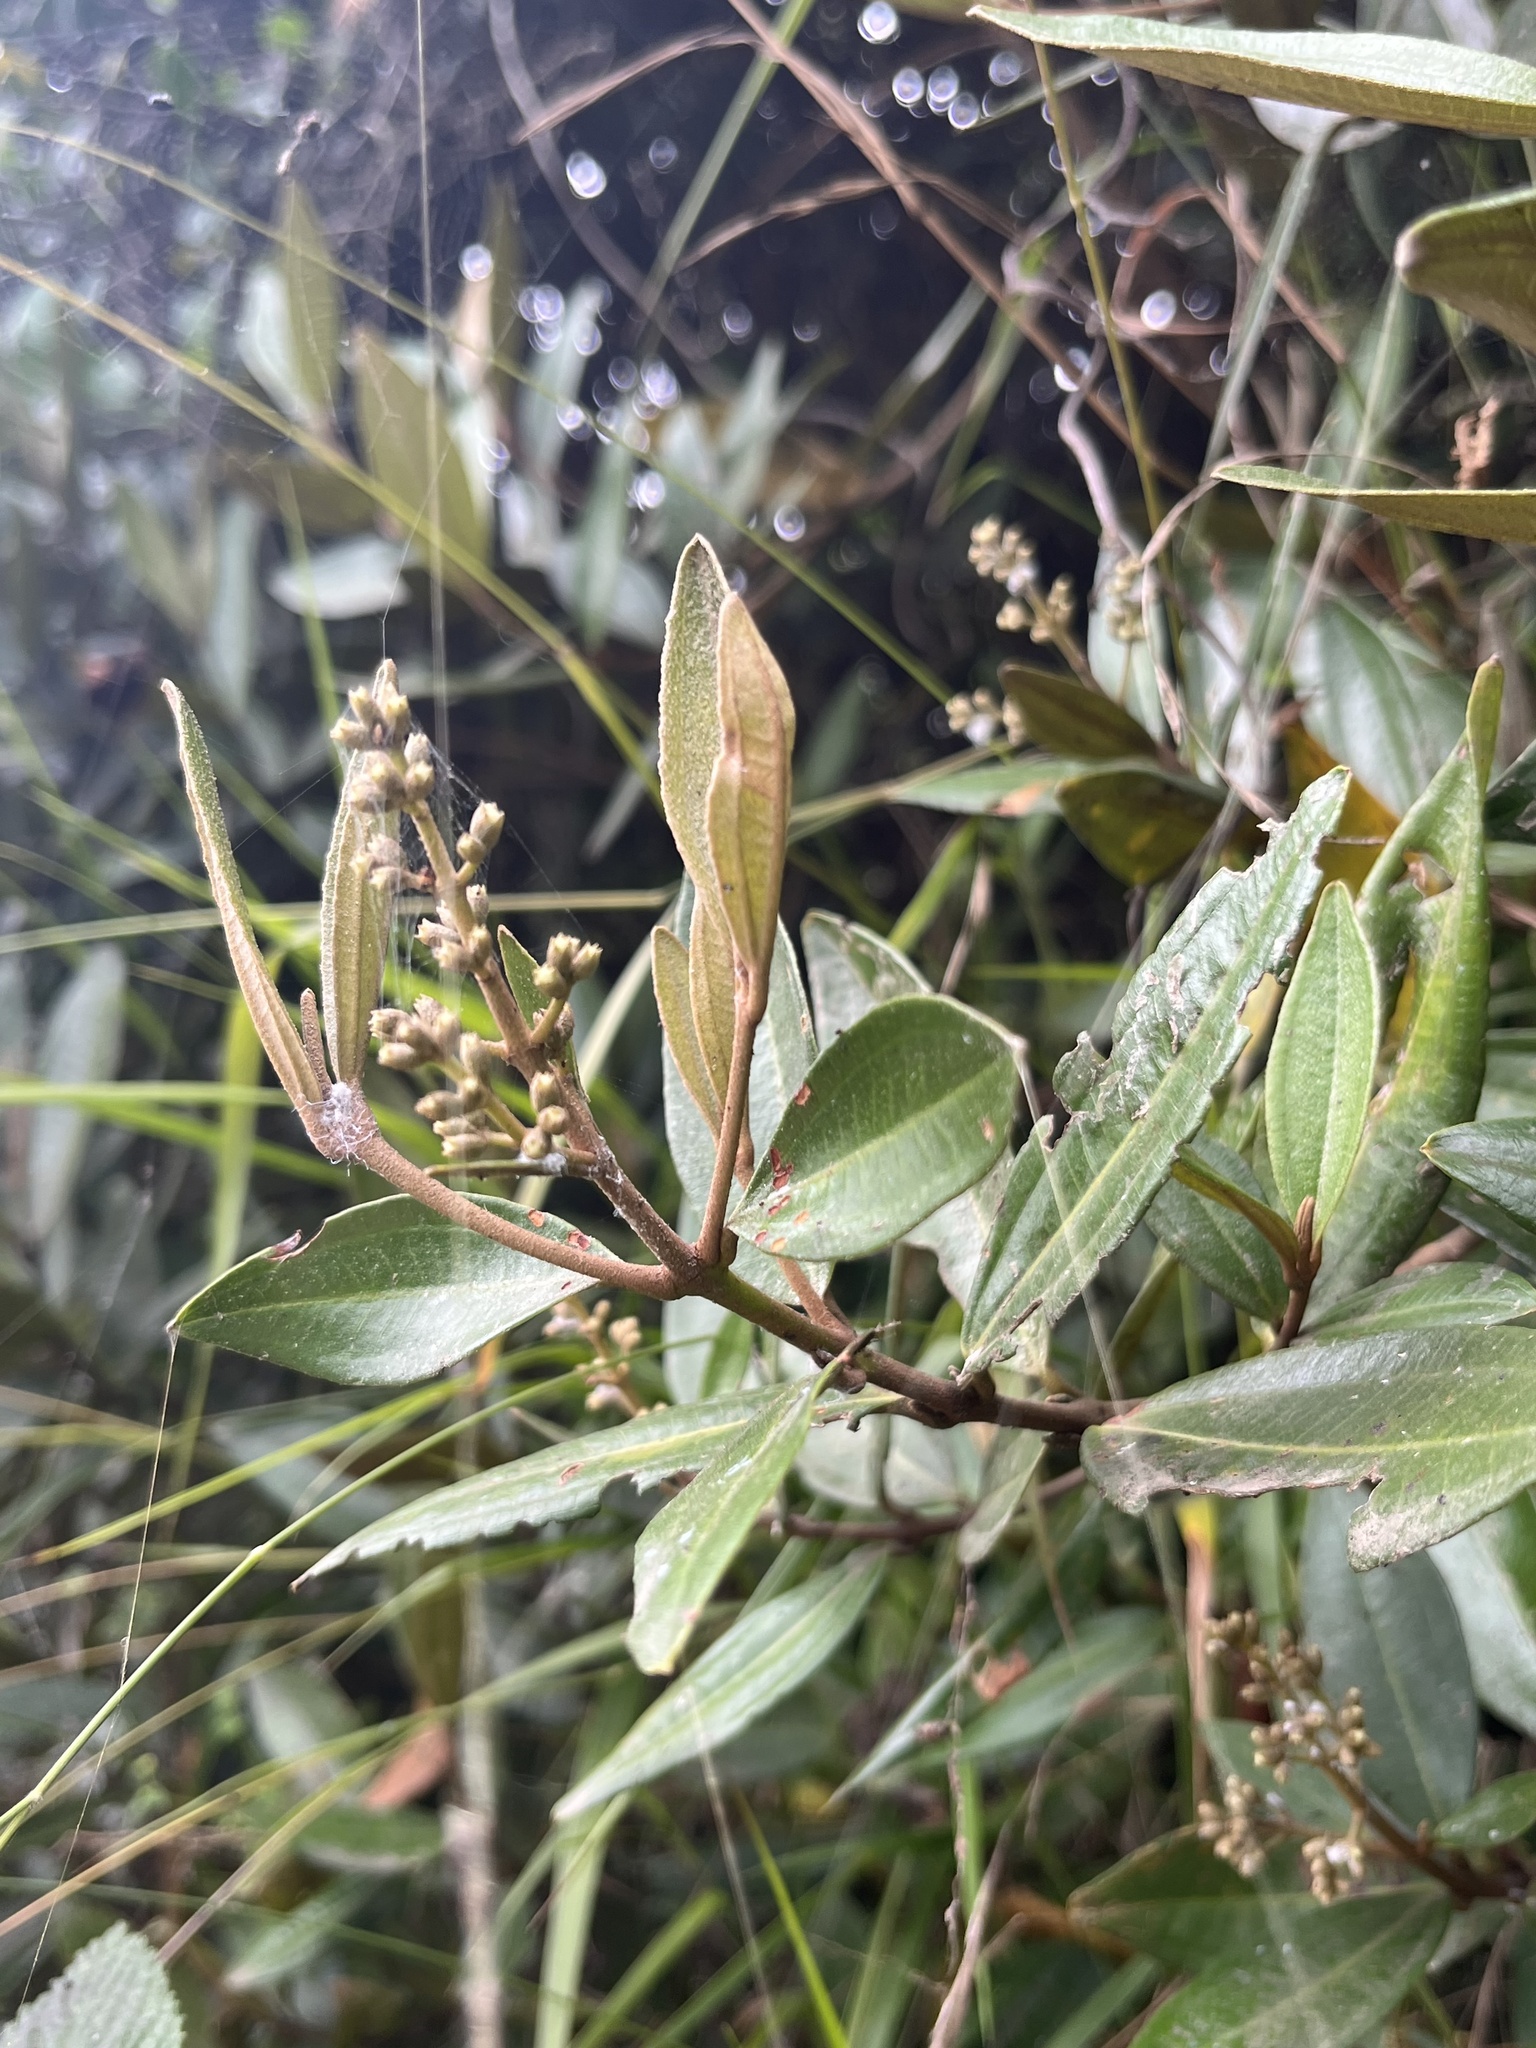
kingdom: Plantae
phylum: Tracheophyta
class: Magnoliopsida
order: Myrtales
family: Melastomataceae
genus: Miconia
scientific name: Miconia squamulosa
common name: Squamulose maya
